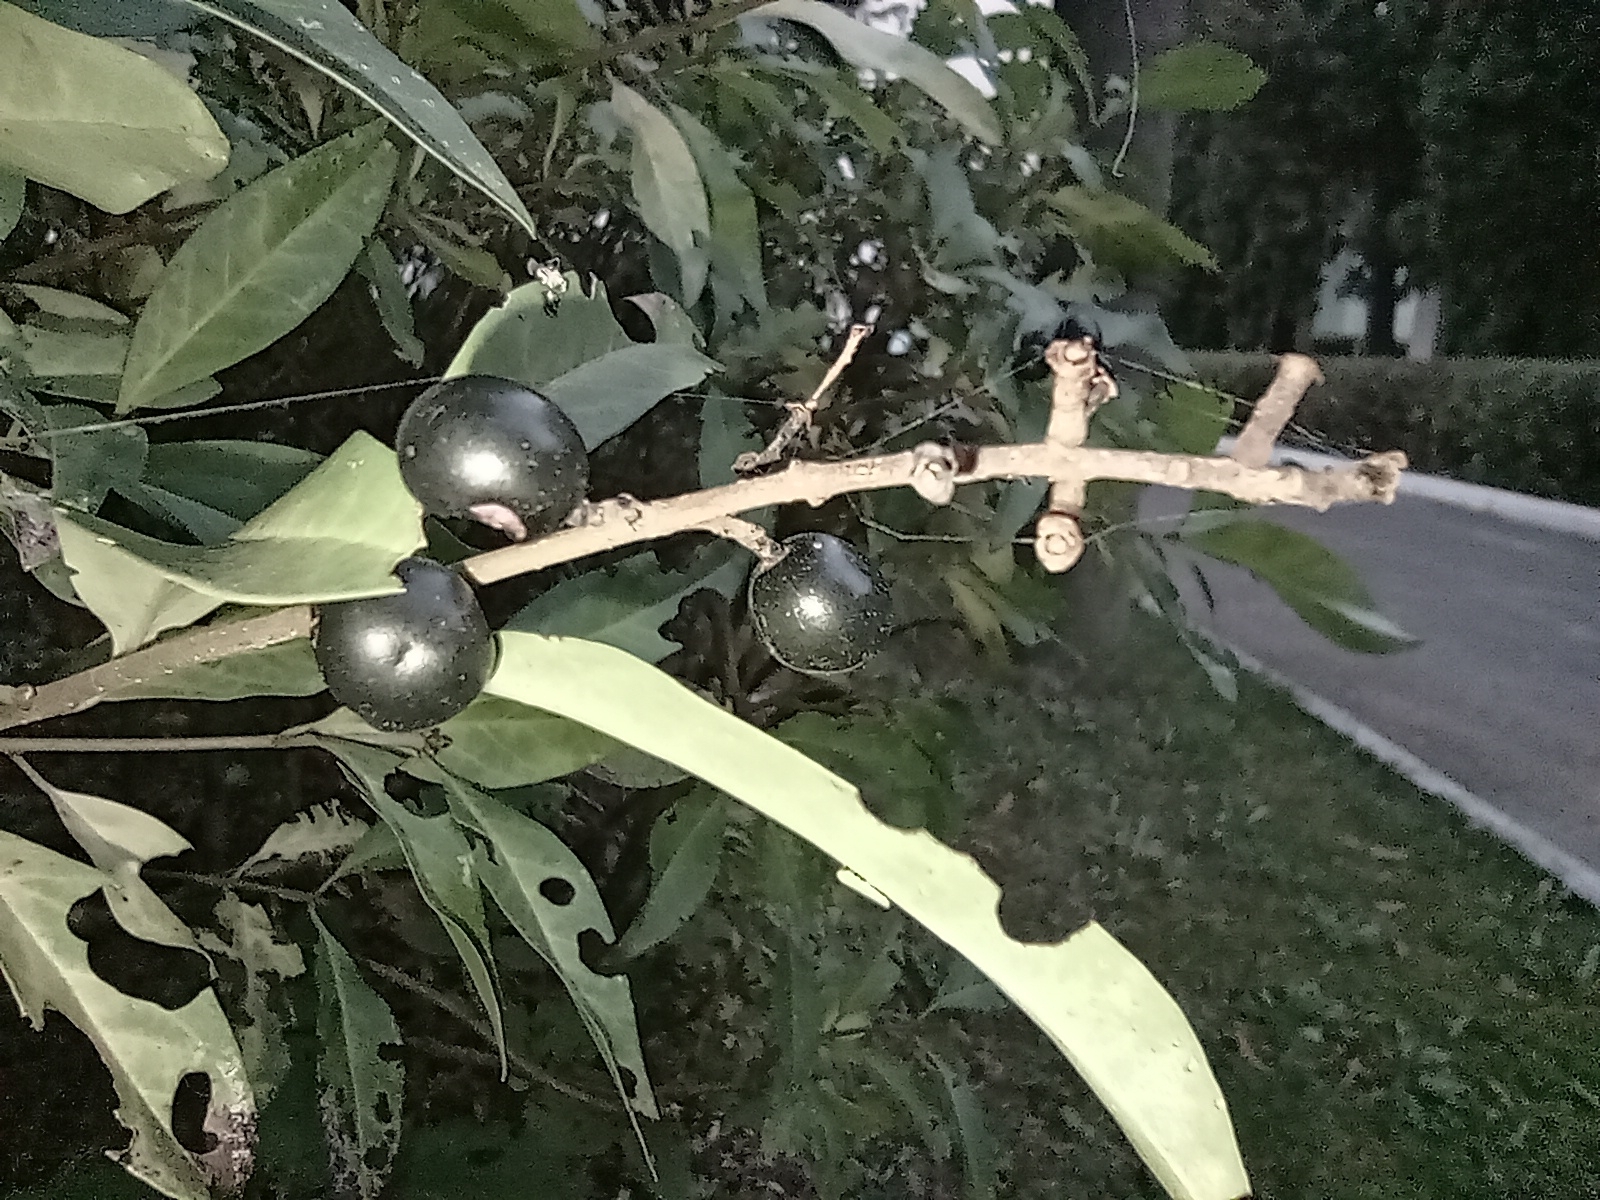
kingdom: Plantae
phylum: Tracheophyta
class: Magnoliopsida
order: Lamiales
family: Oleaceae
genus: Ligustrum
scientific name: Ligustrum vulgare
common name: Wild privet
